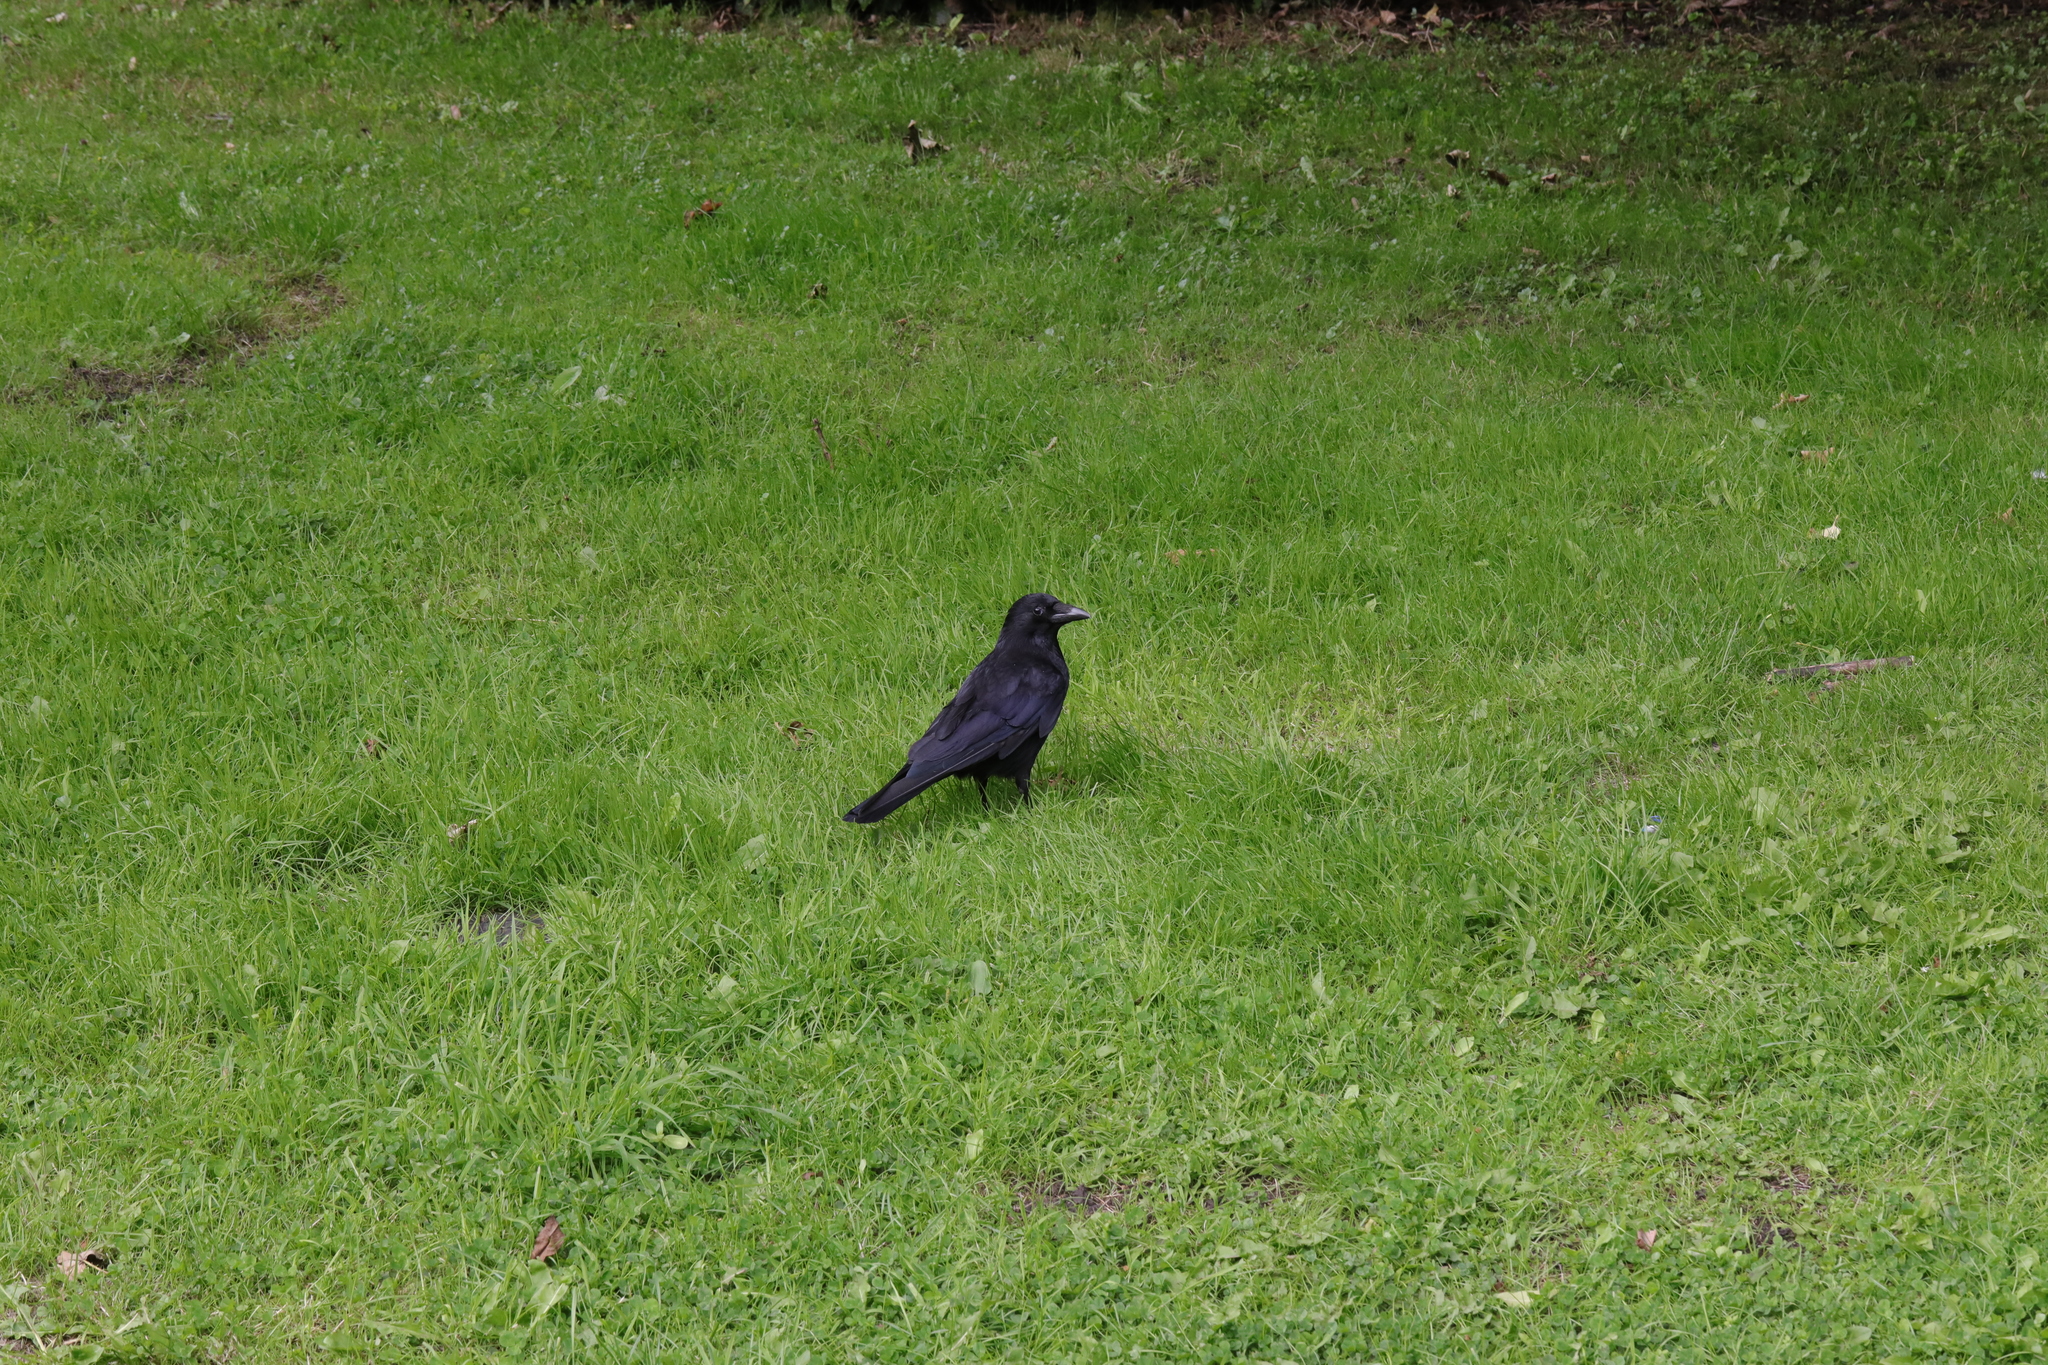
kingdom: Animalia
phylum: Chordata
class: Aves
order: Passeriformes
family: Corvidae
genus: Corvus
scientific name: Corvus corone
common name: Carrion crow
